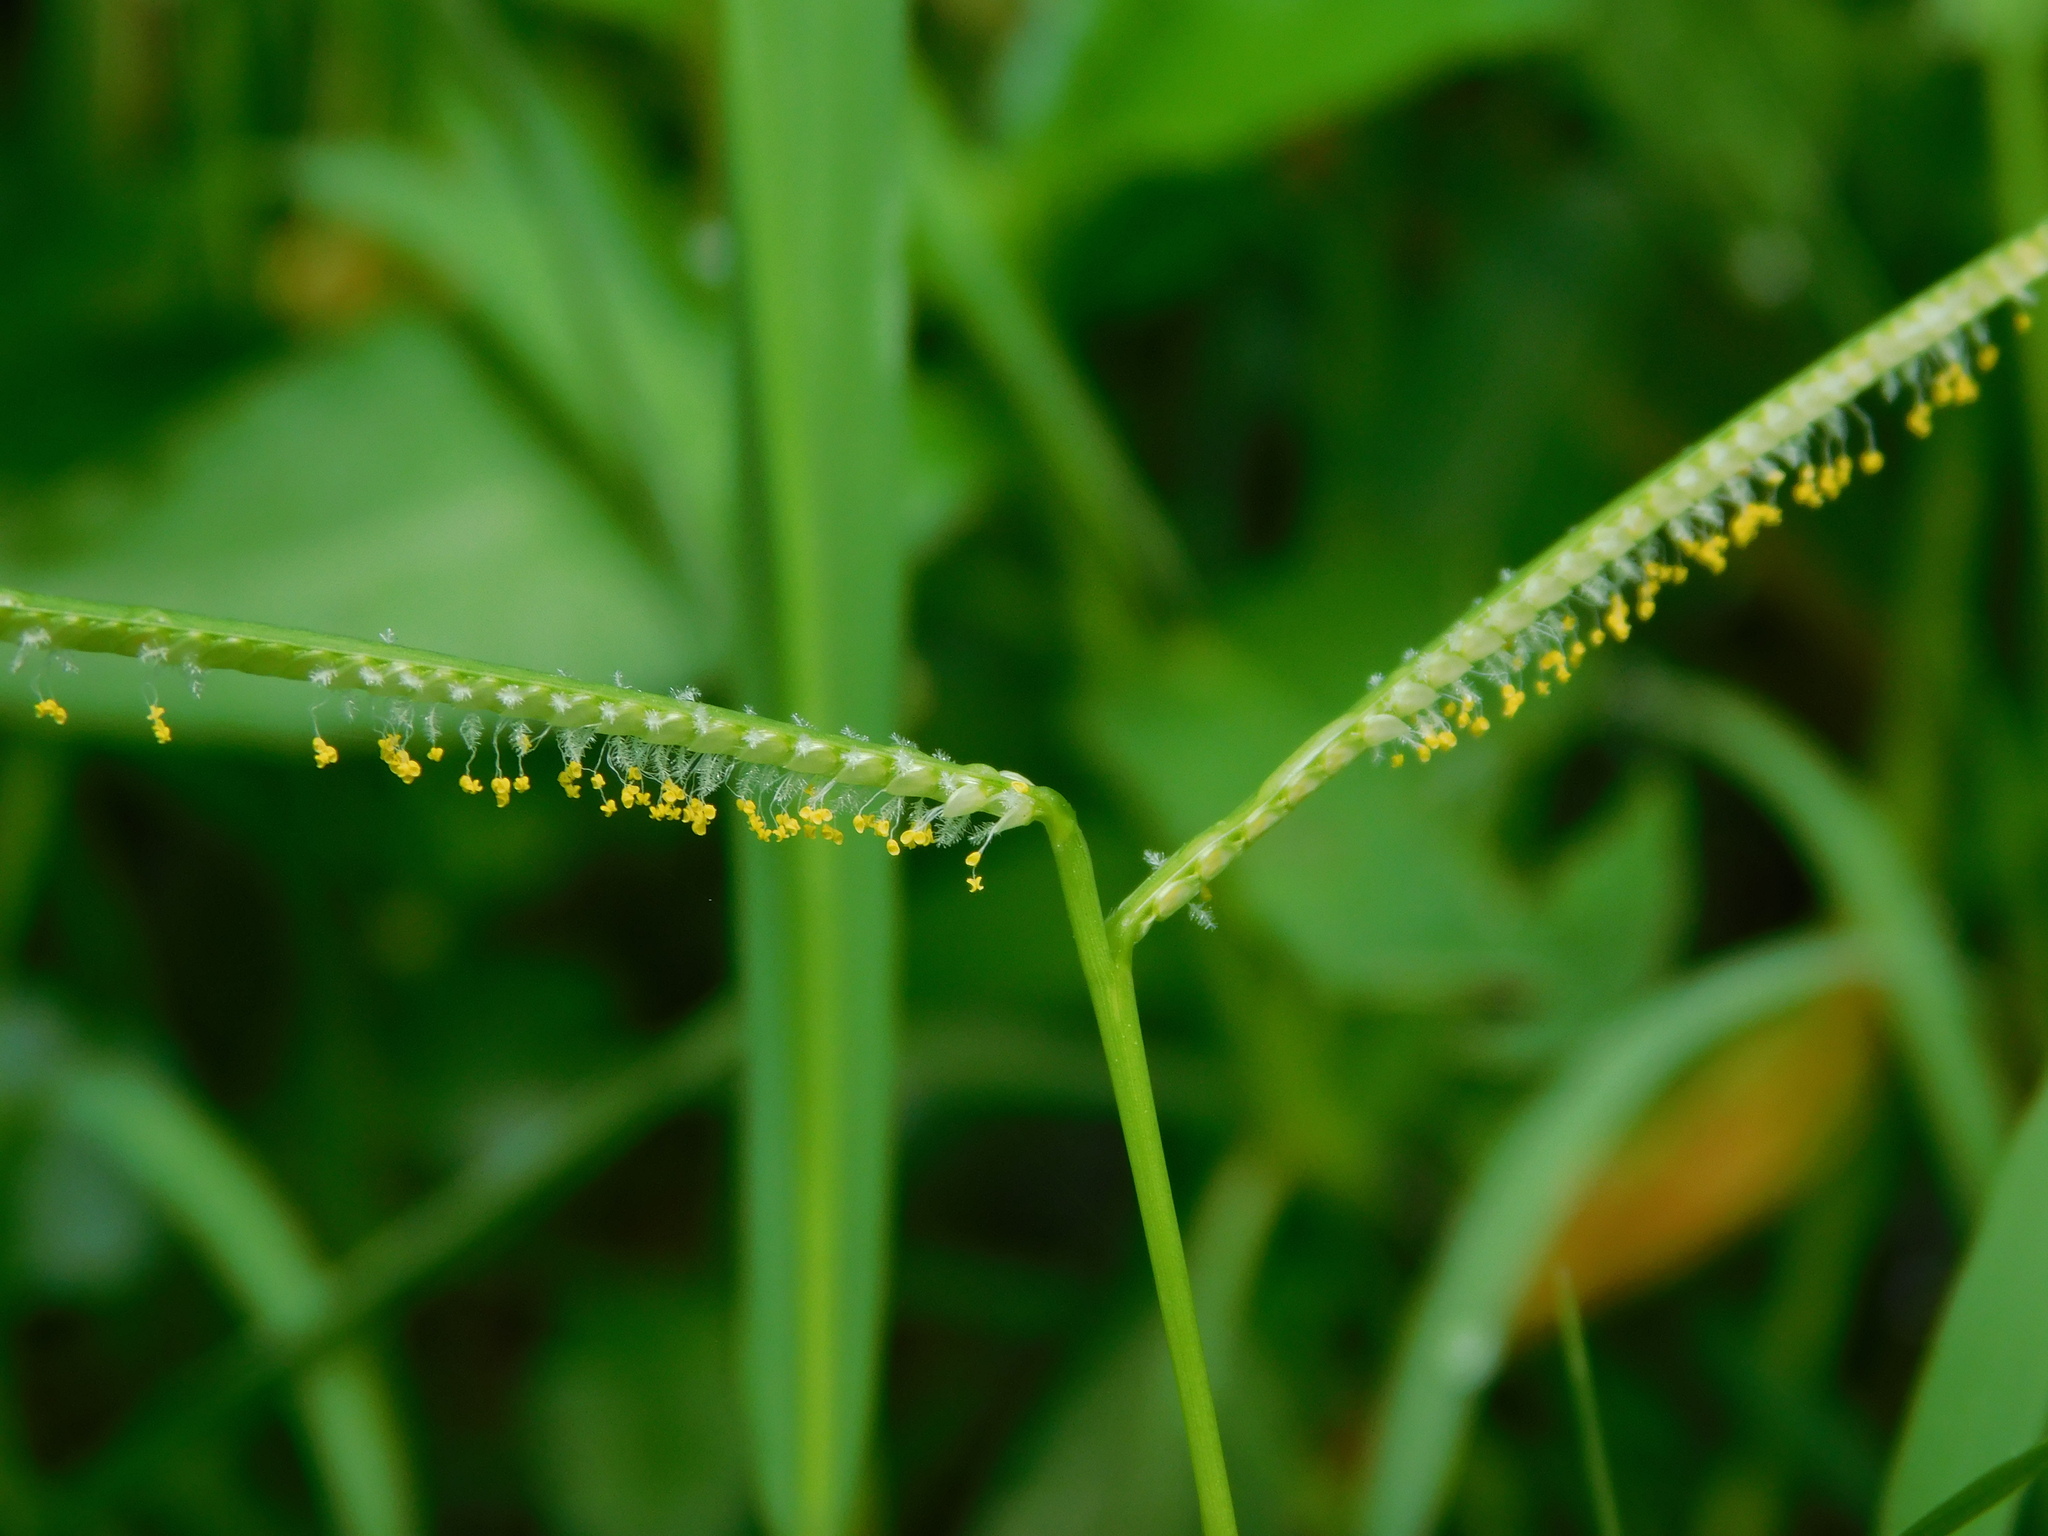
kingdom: Plantae
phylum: Tracheophyta
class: Liliopsida
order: Poales
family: Poaceae
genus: Paspalum
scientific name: Paspalum conjugatum
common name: Hilograss
